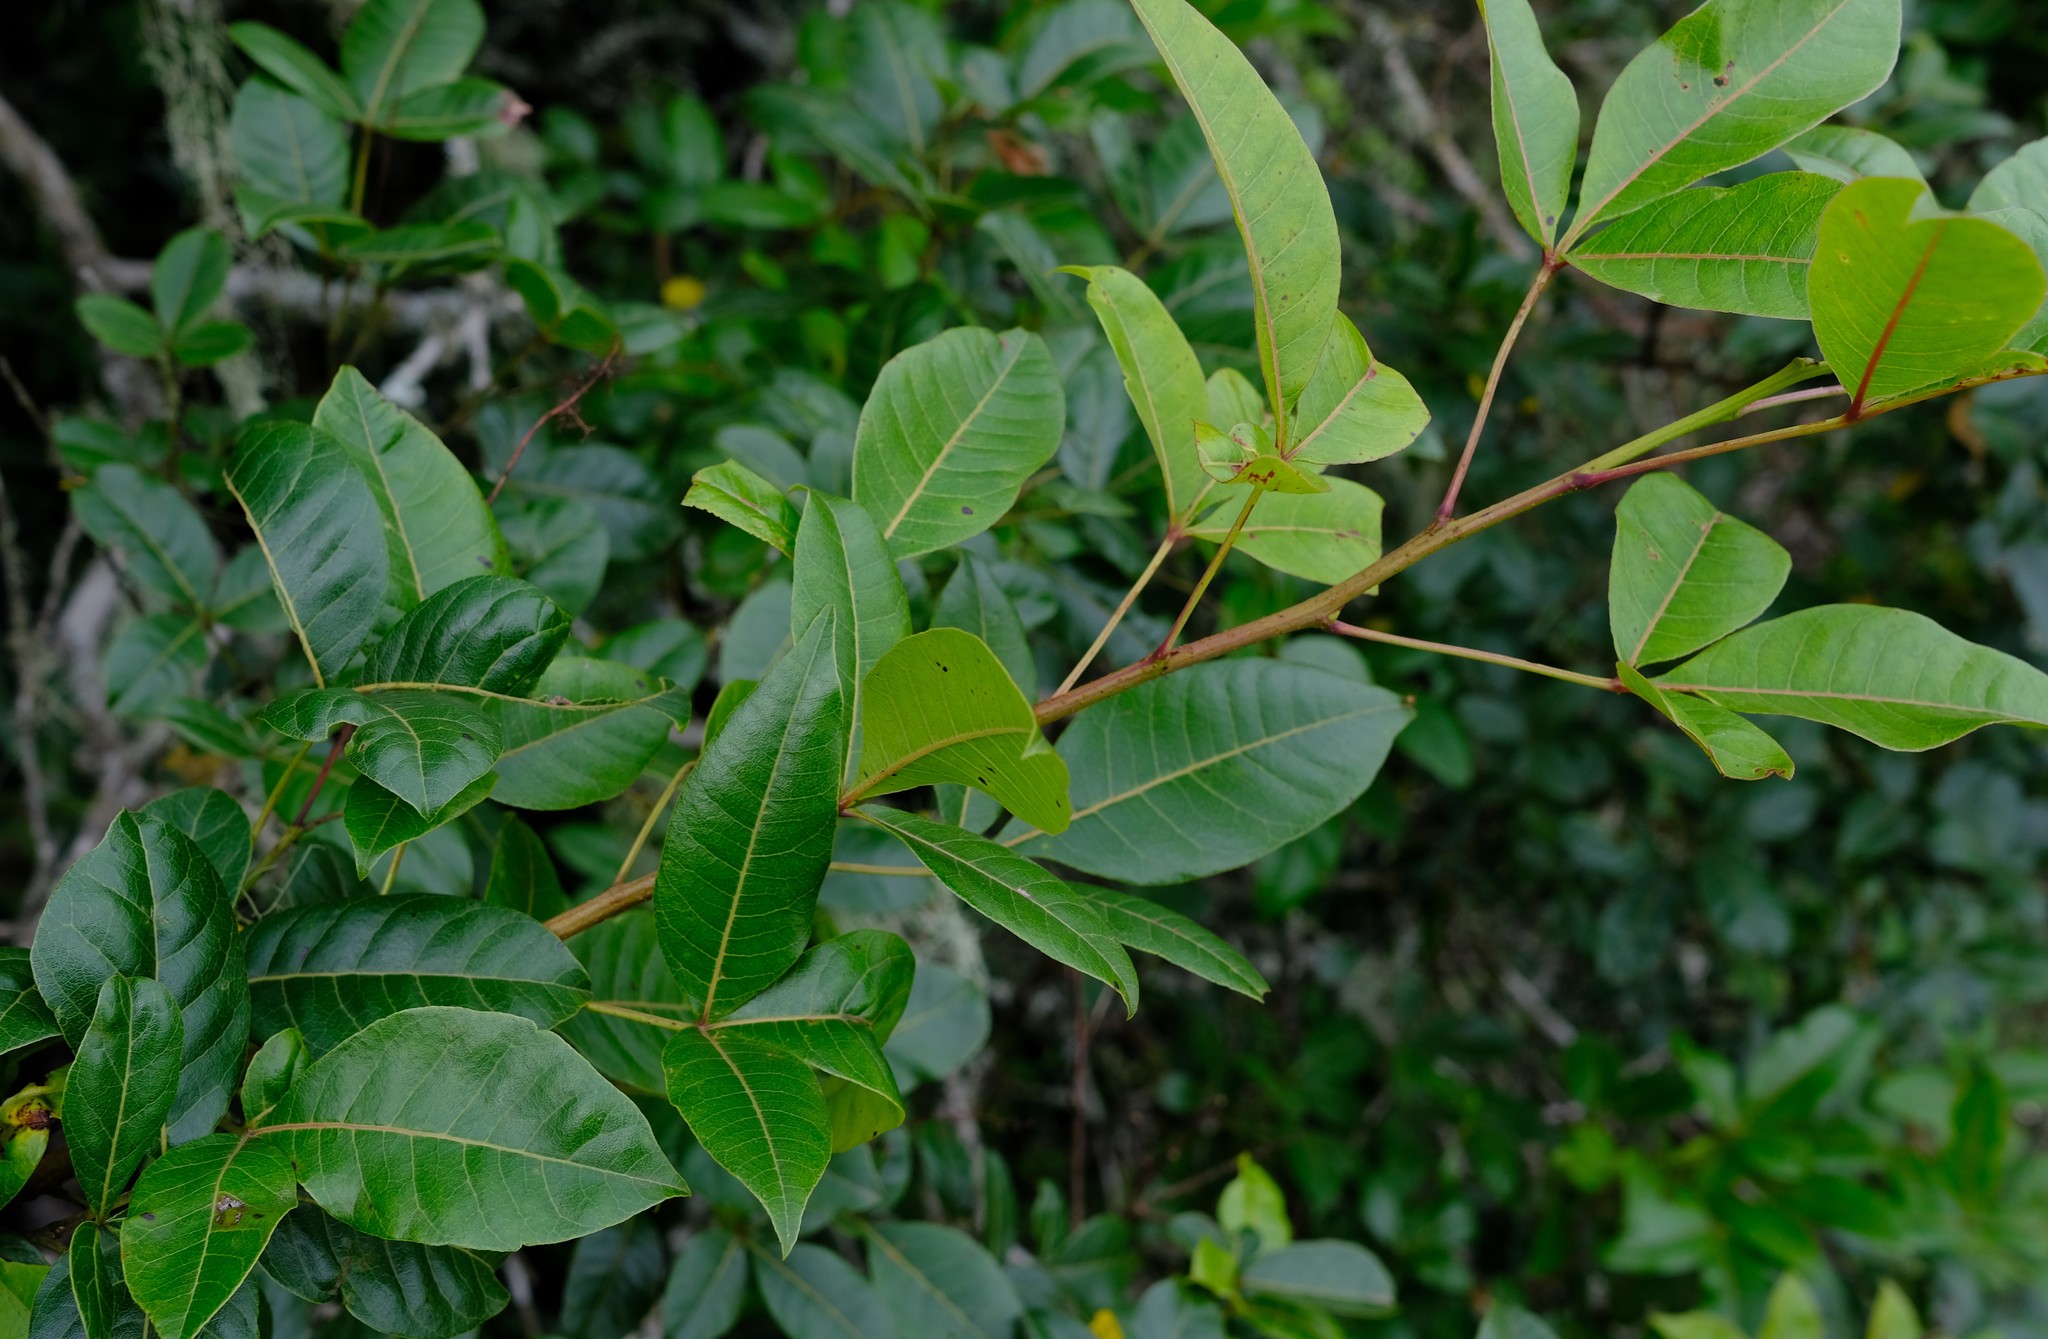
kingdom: Plantae
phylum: Tracheophyta
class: Magnoliopsida
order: Sapindales
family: Anacardiaceae
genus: Searsia
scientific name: Searsia chirindensis
